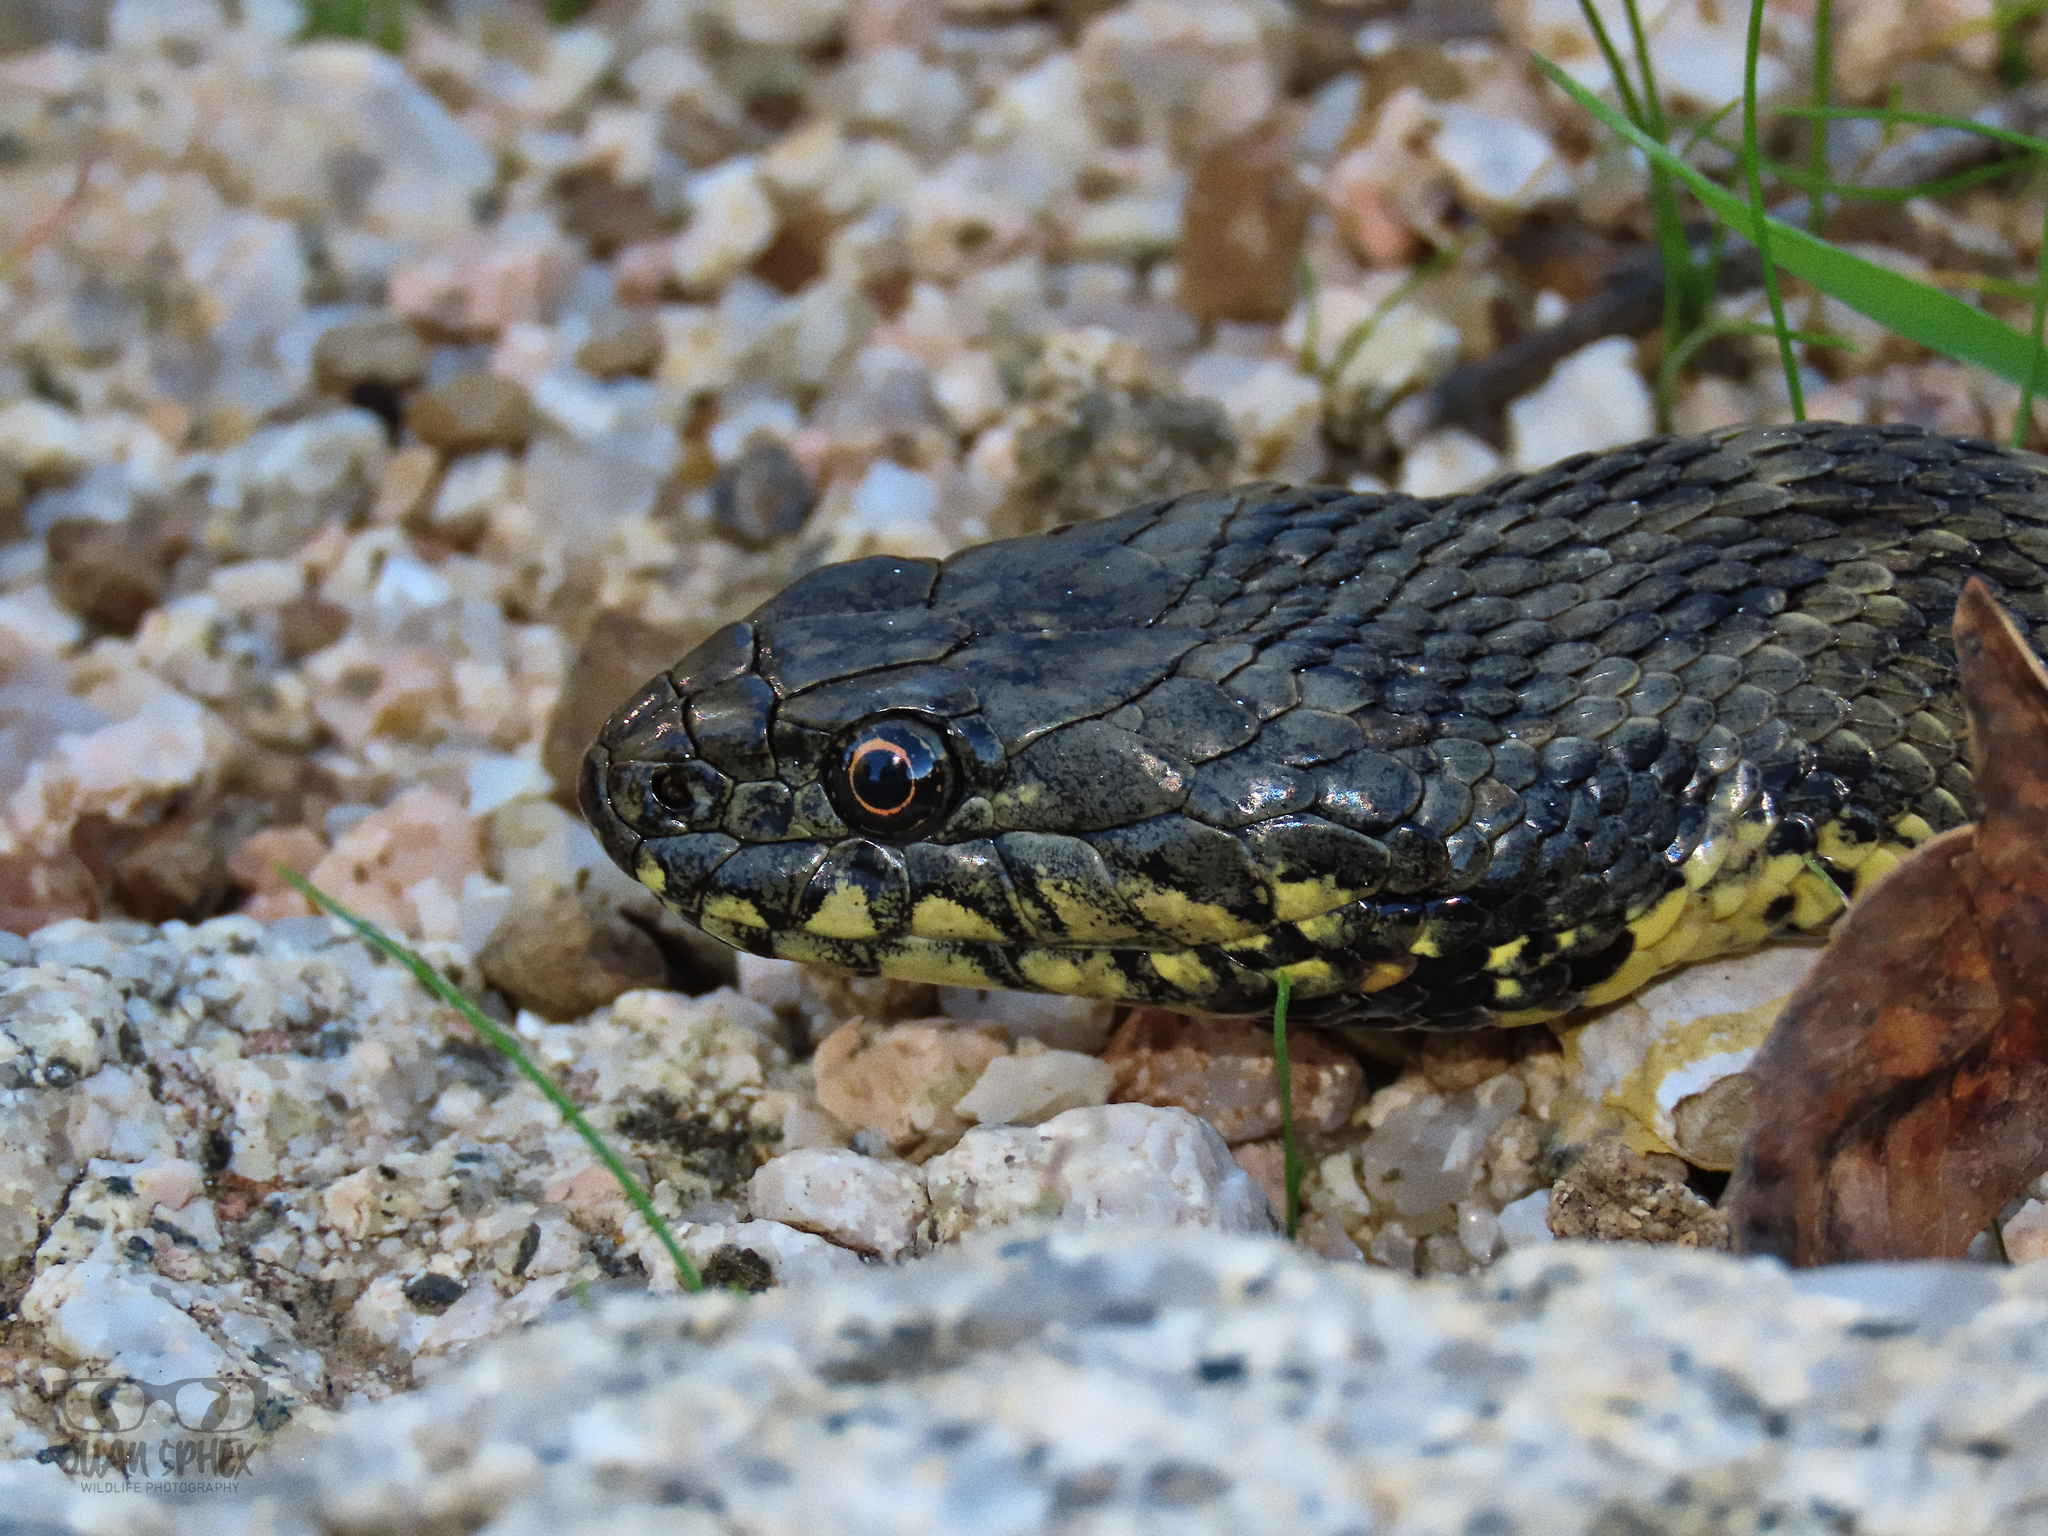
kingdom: Animalia
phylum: Chordata
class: Squamata
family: Colubridae
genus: Natrix
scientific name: Natrix maura
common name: Viperine water snake
